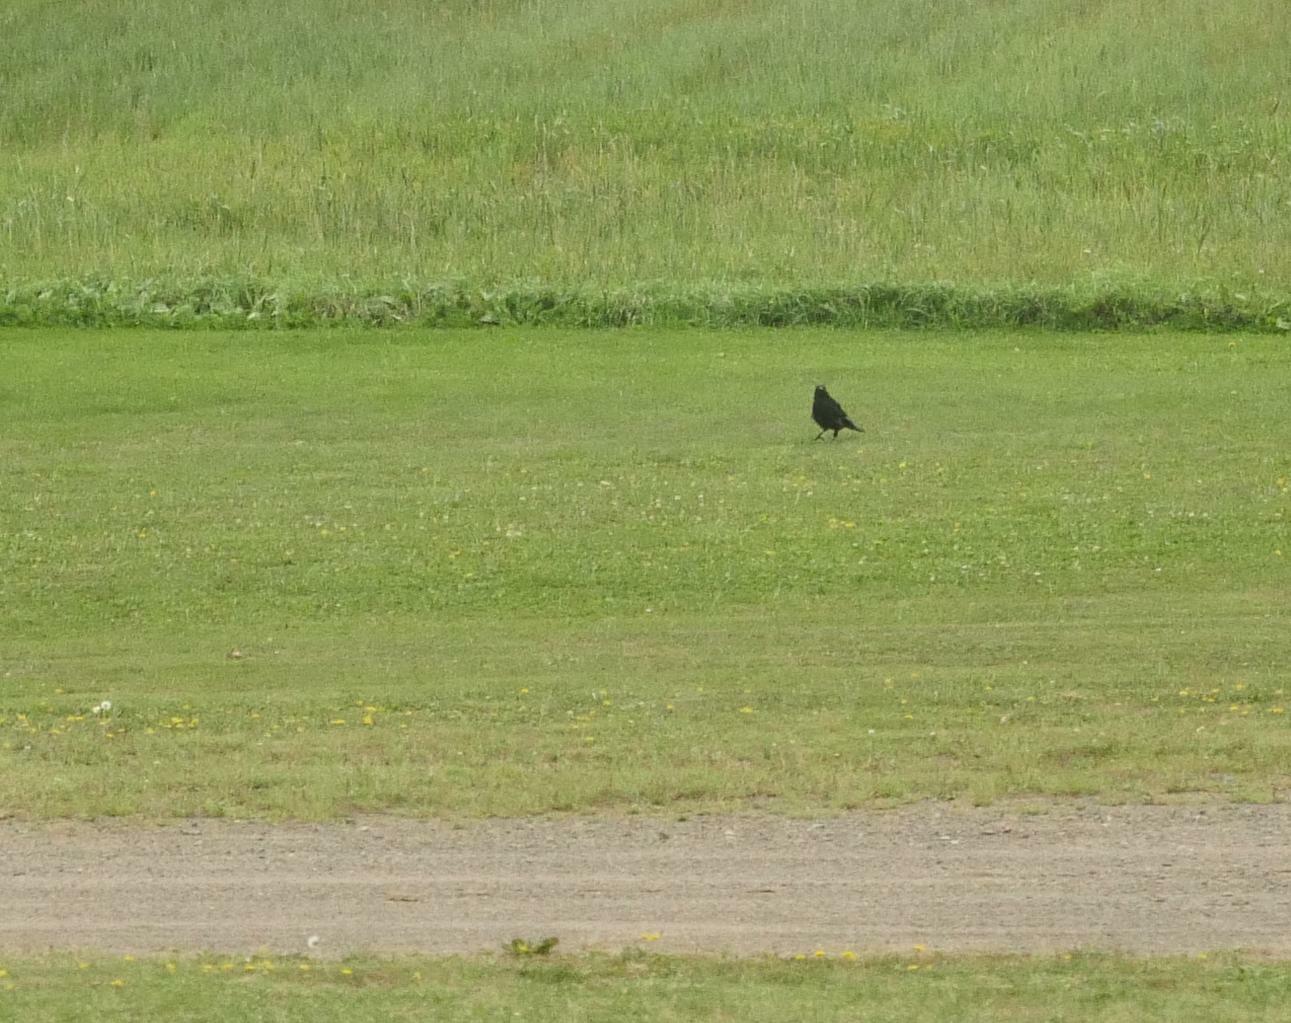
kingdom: Animalia
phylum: Chordata
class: Aves
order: Passeriformes
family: Corvidae
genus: Corvus
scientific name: Corvus brachyrhynchos
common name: American crow
